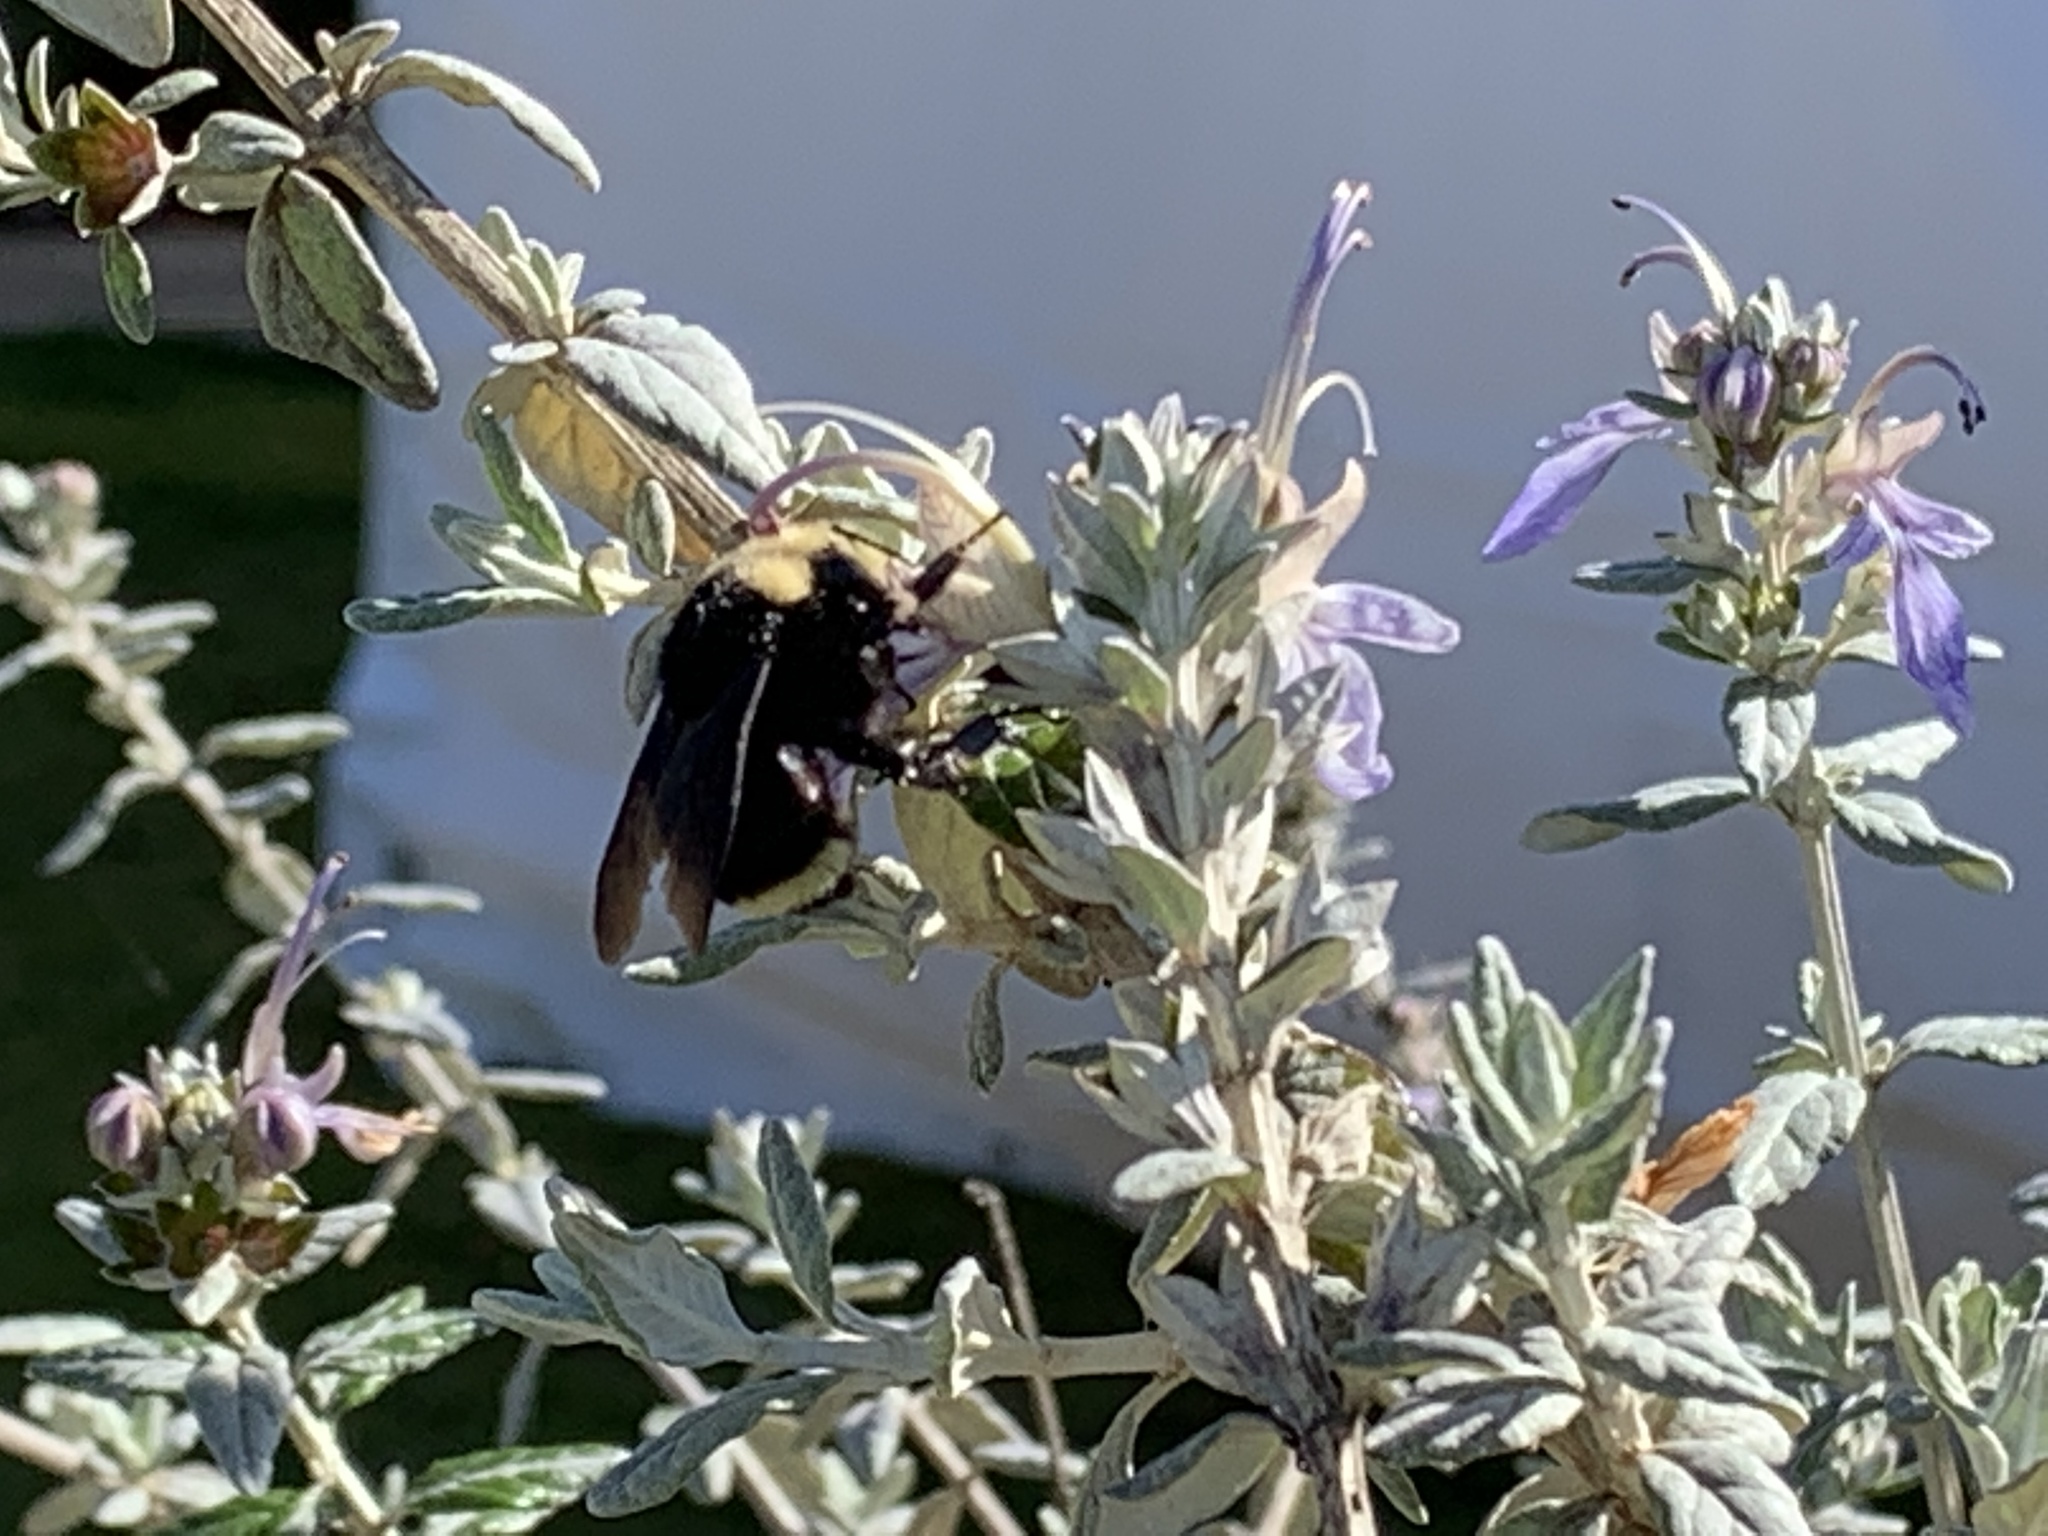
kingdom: Animalia
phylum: Arthropoda
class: Insecta
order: Hymenoptera
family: Apidae
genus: Bombus
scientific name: Bombus vosnesenskii
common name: Vosnesensky bumble bee
